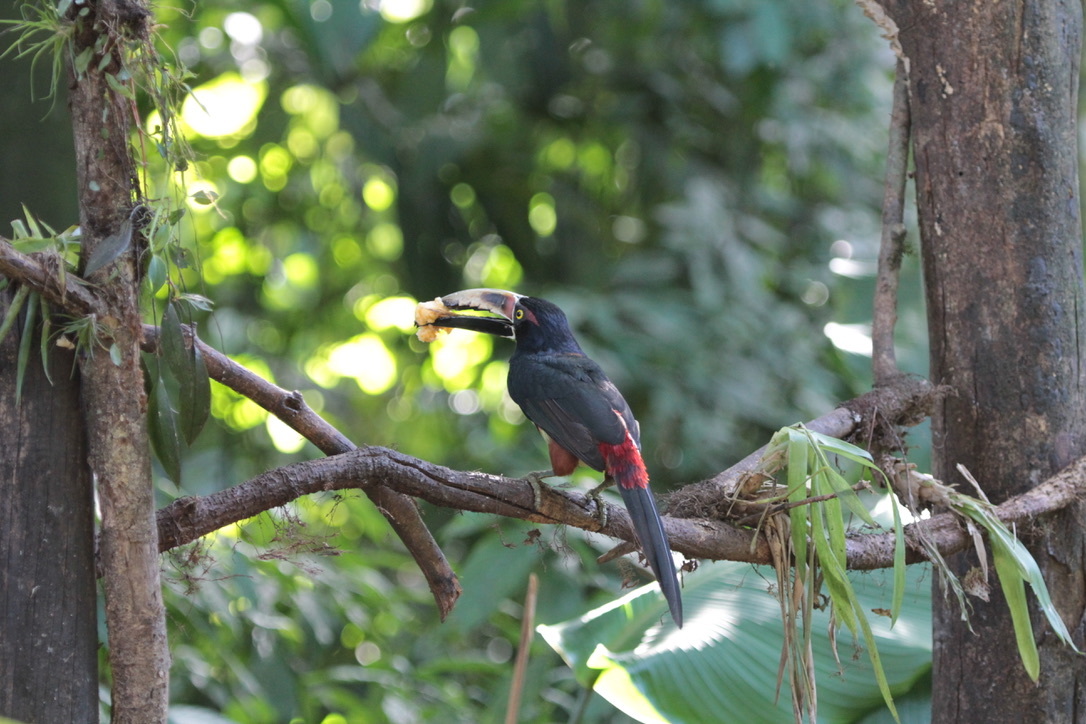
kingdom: Animalia
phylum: Chordata
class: Aves
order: Piciformes
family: Ramphastidae
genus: Pteroglossus
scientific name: Pteroglossus torquatus
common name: Collared aracari
